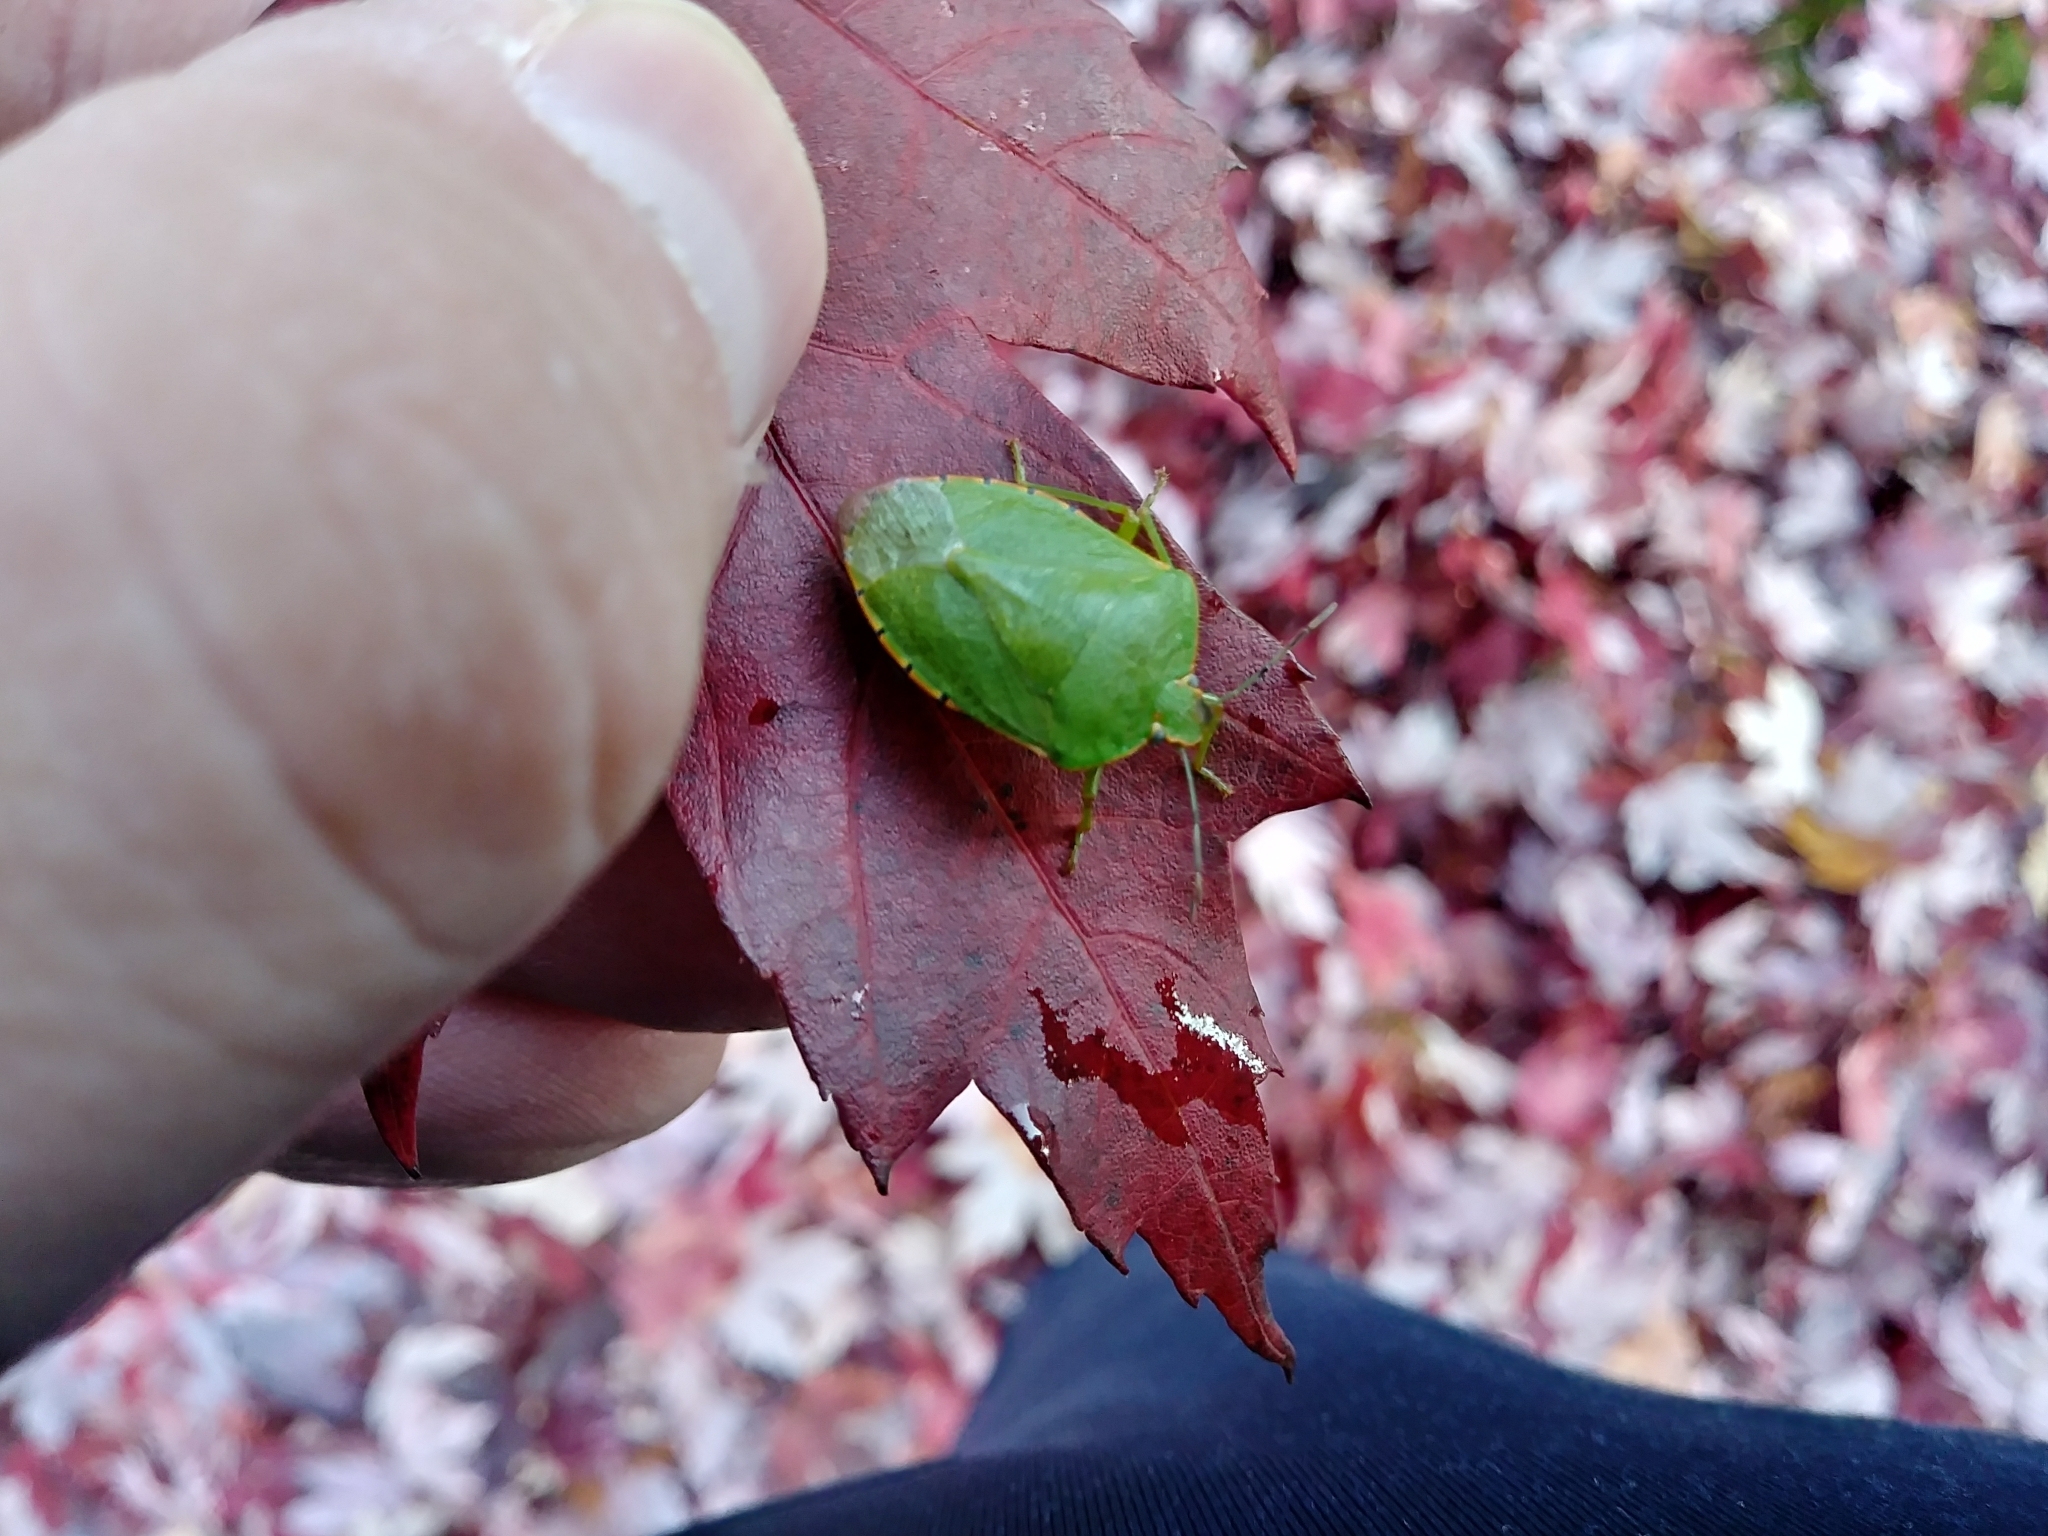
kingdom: Animalia
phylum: Arthropoda
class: Insecta
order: Hemiptera
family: Pentatomidae
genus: Chinavia
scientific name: Chinavia hilaris
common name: Green stink bug
